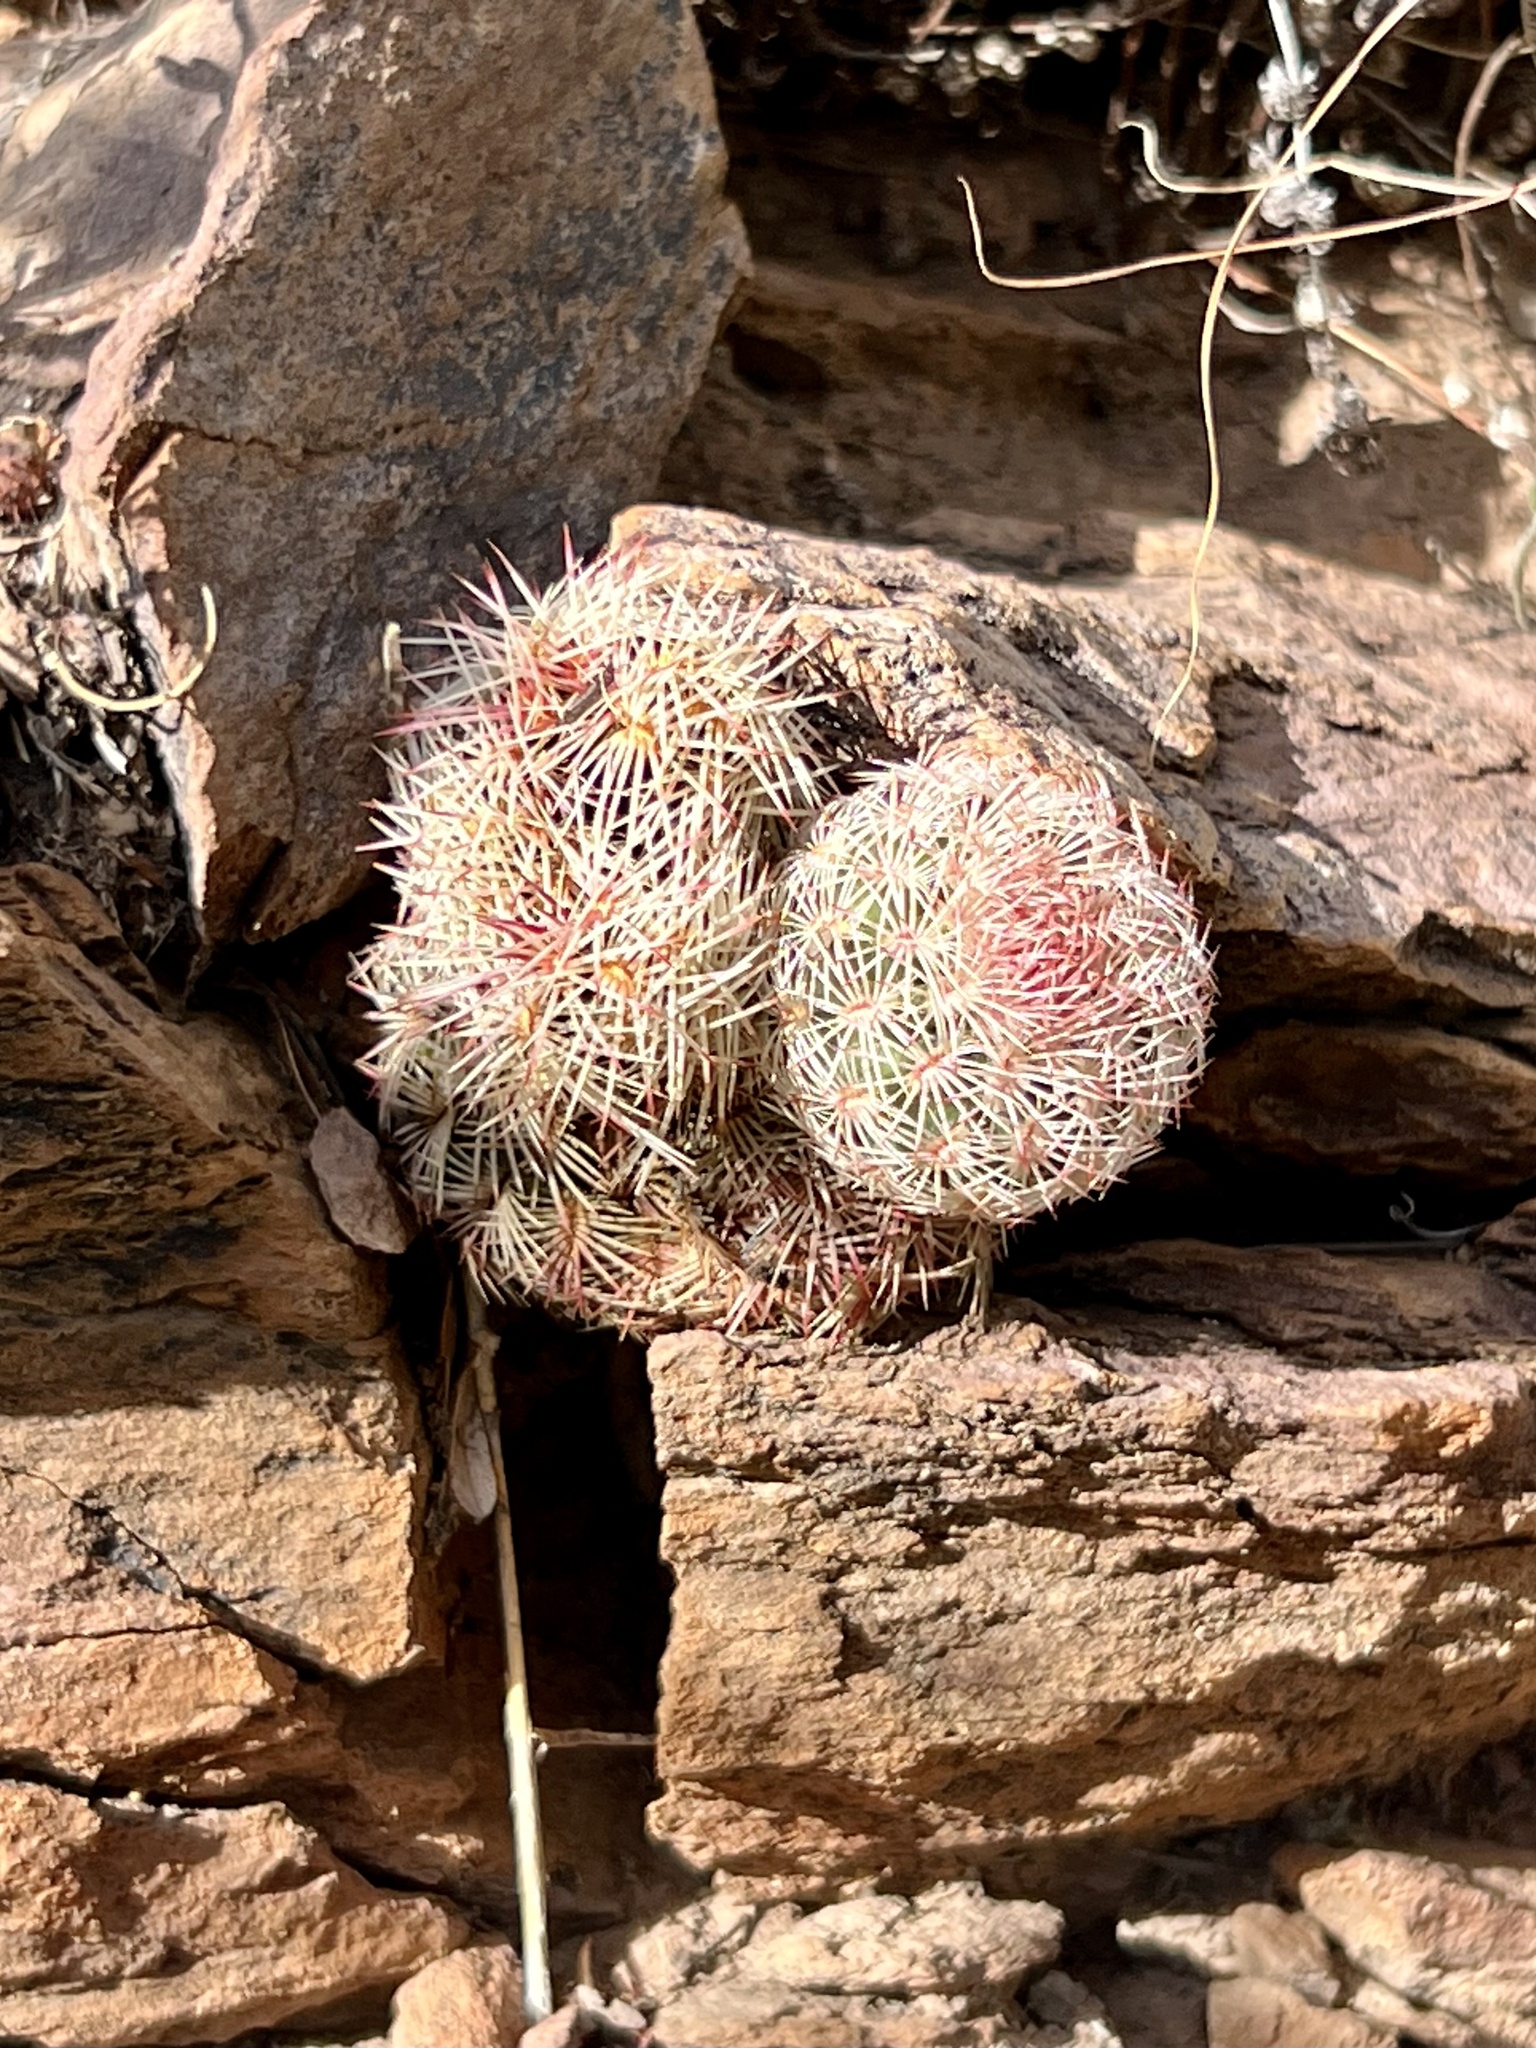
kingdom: Plantae
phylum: Tracheophyta
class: Magnoliopsida
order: Caryophyllales
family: Cactaceae
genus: Echinocereus
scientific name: Echinocereus rigidissimus
